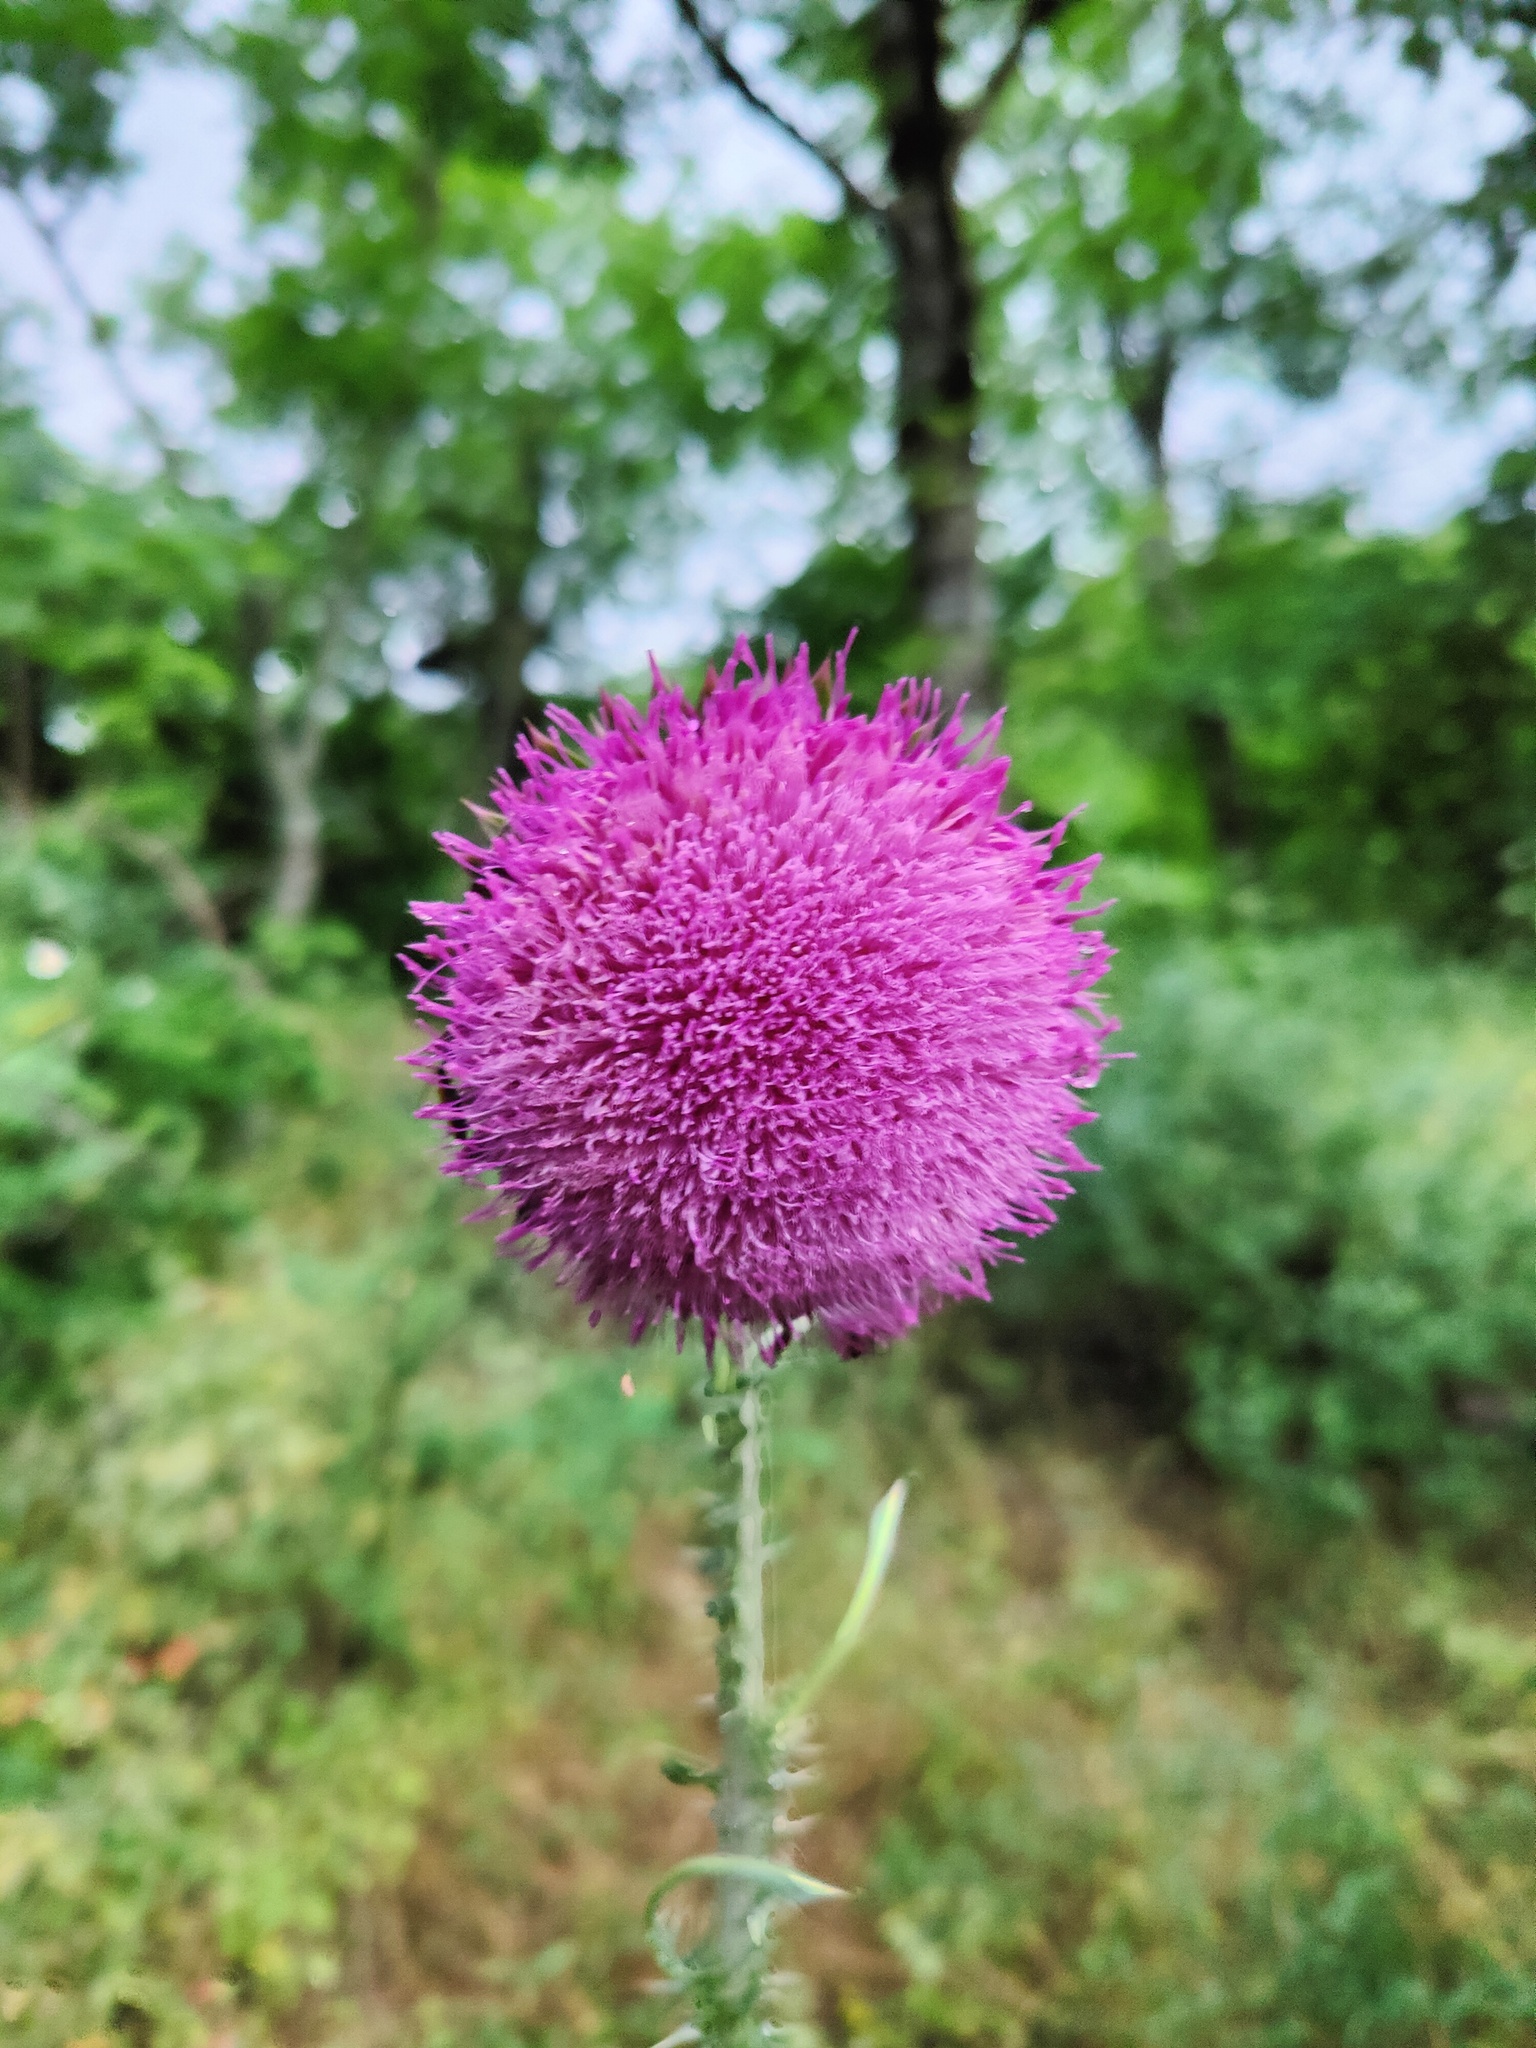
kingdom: Plantae
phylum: Tracheophyta
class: Magnoliopsida
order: Asterales
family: Asteraceae
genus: Carduus
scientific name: Carduus nutans
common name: Musk thistle
